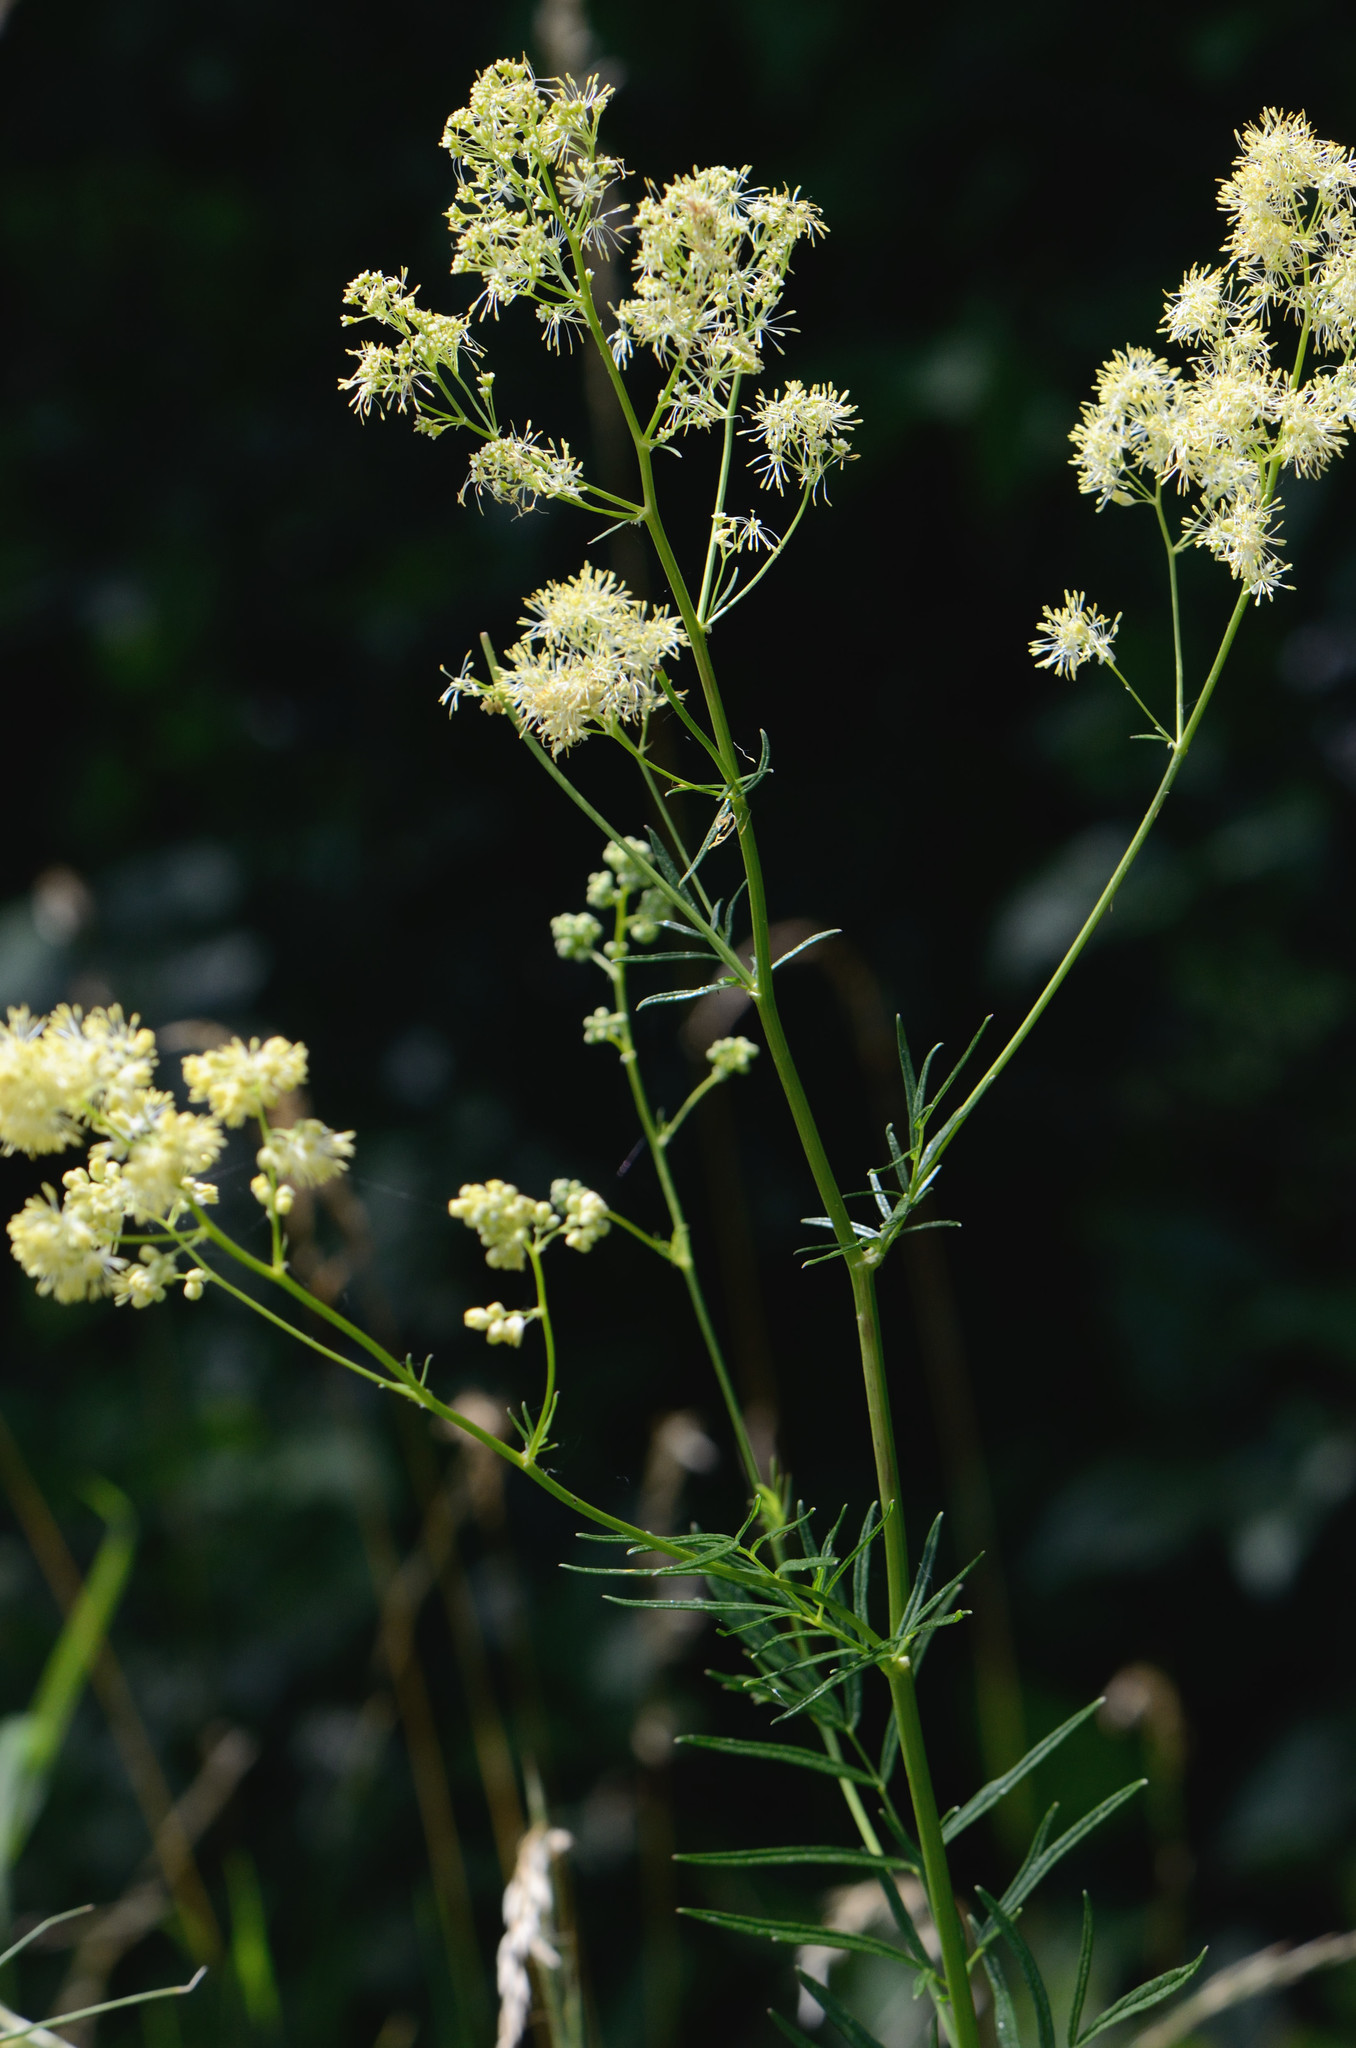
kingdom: Plantae
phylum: Tracheophyta
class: Magnoliopsida
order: Ranunculales
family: Ranunculaceae
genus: Thalictrum
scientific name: Thalictrum lucidum
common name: Shining meadow-rue
